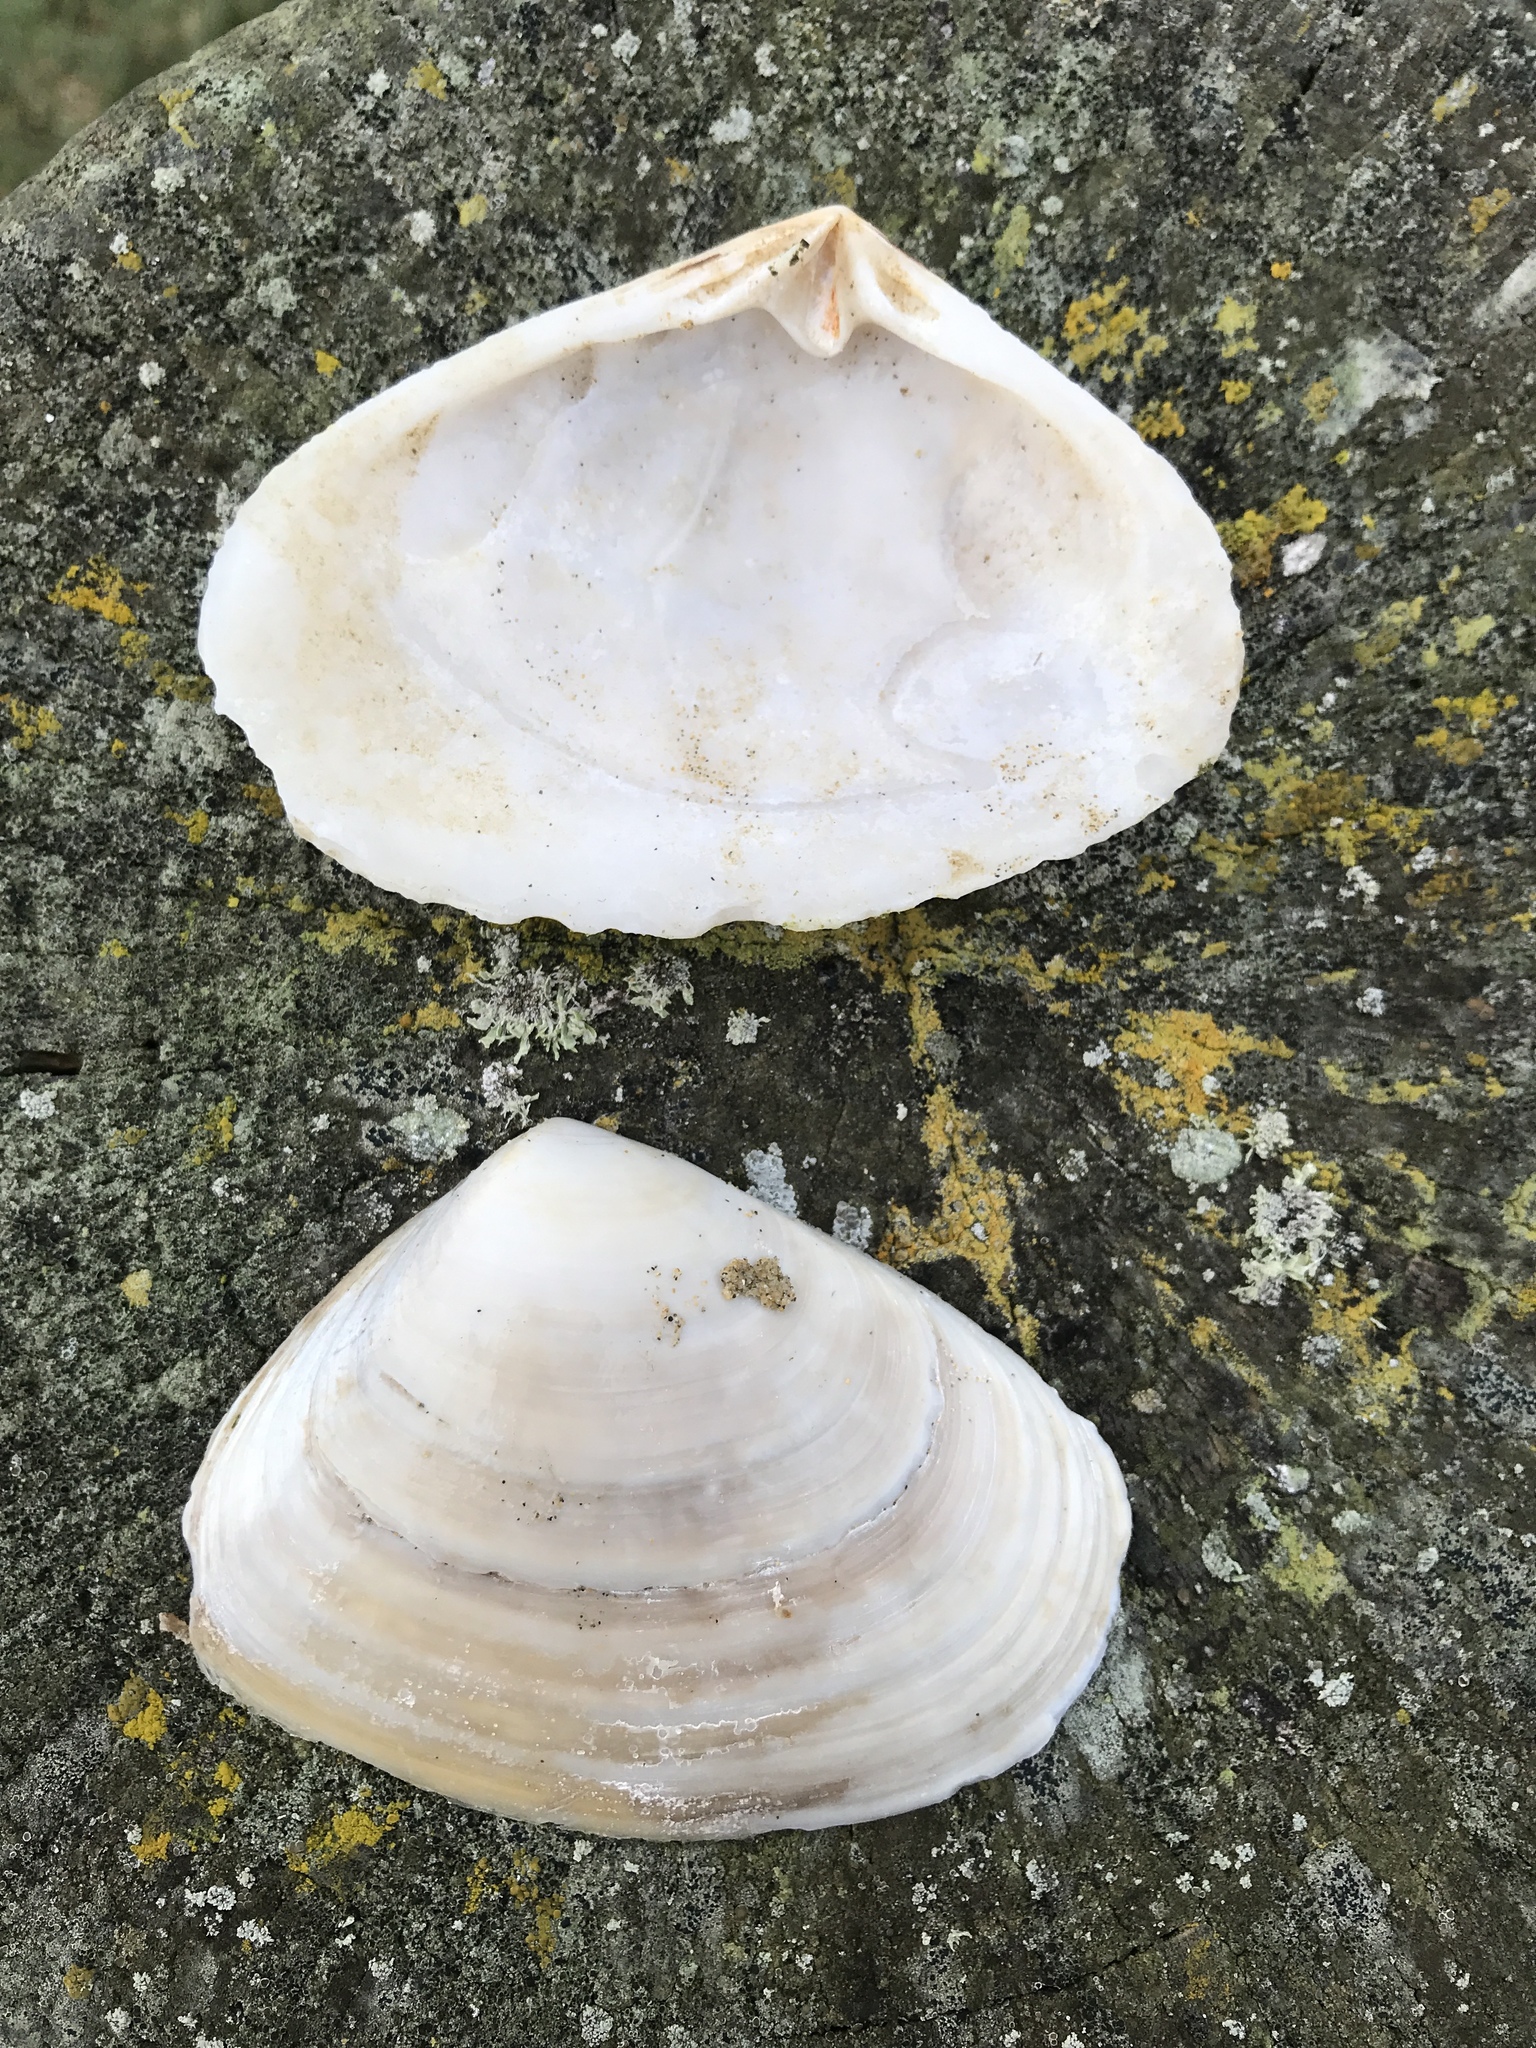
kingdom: Animalia
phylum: Mollusca
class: Bivalvia
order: Venerida
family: Mesodesmatidae
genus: Paphies
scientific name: Paphies donacina
